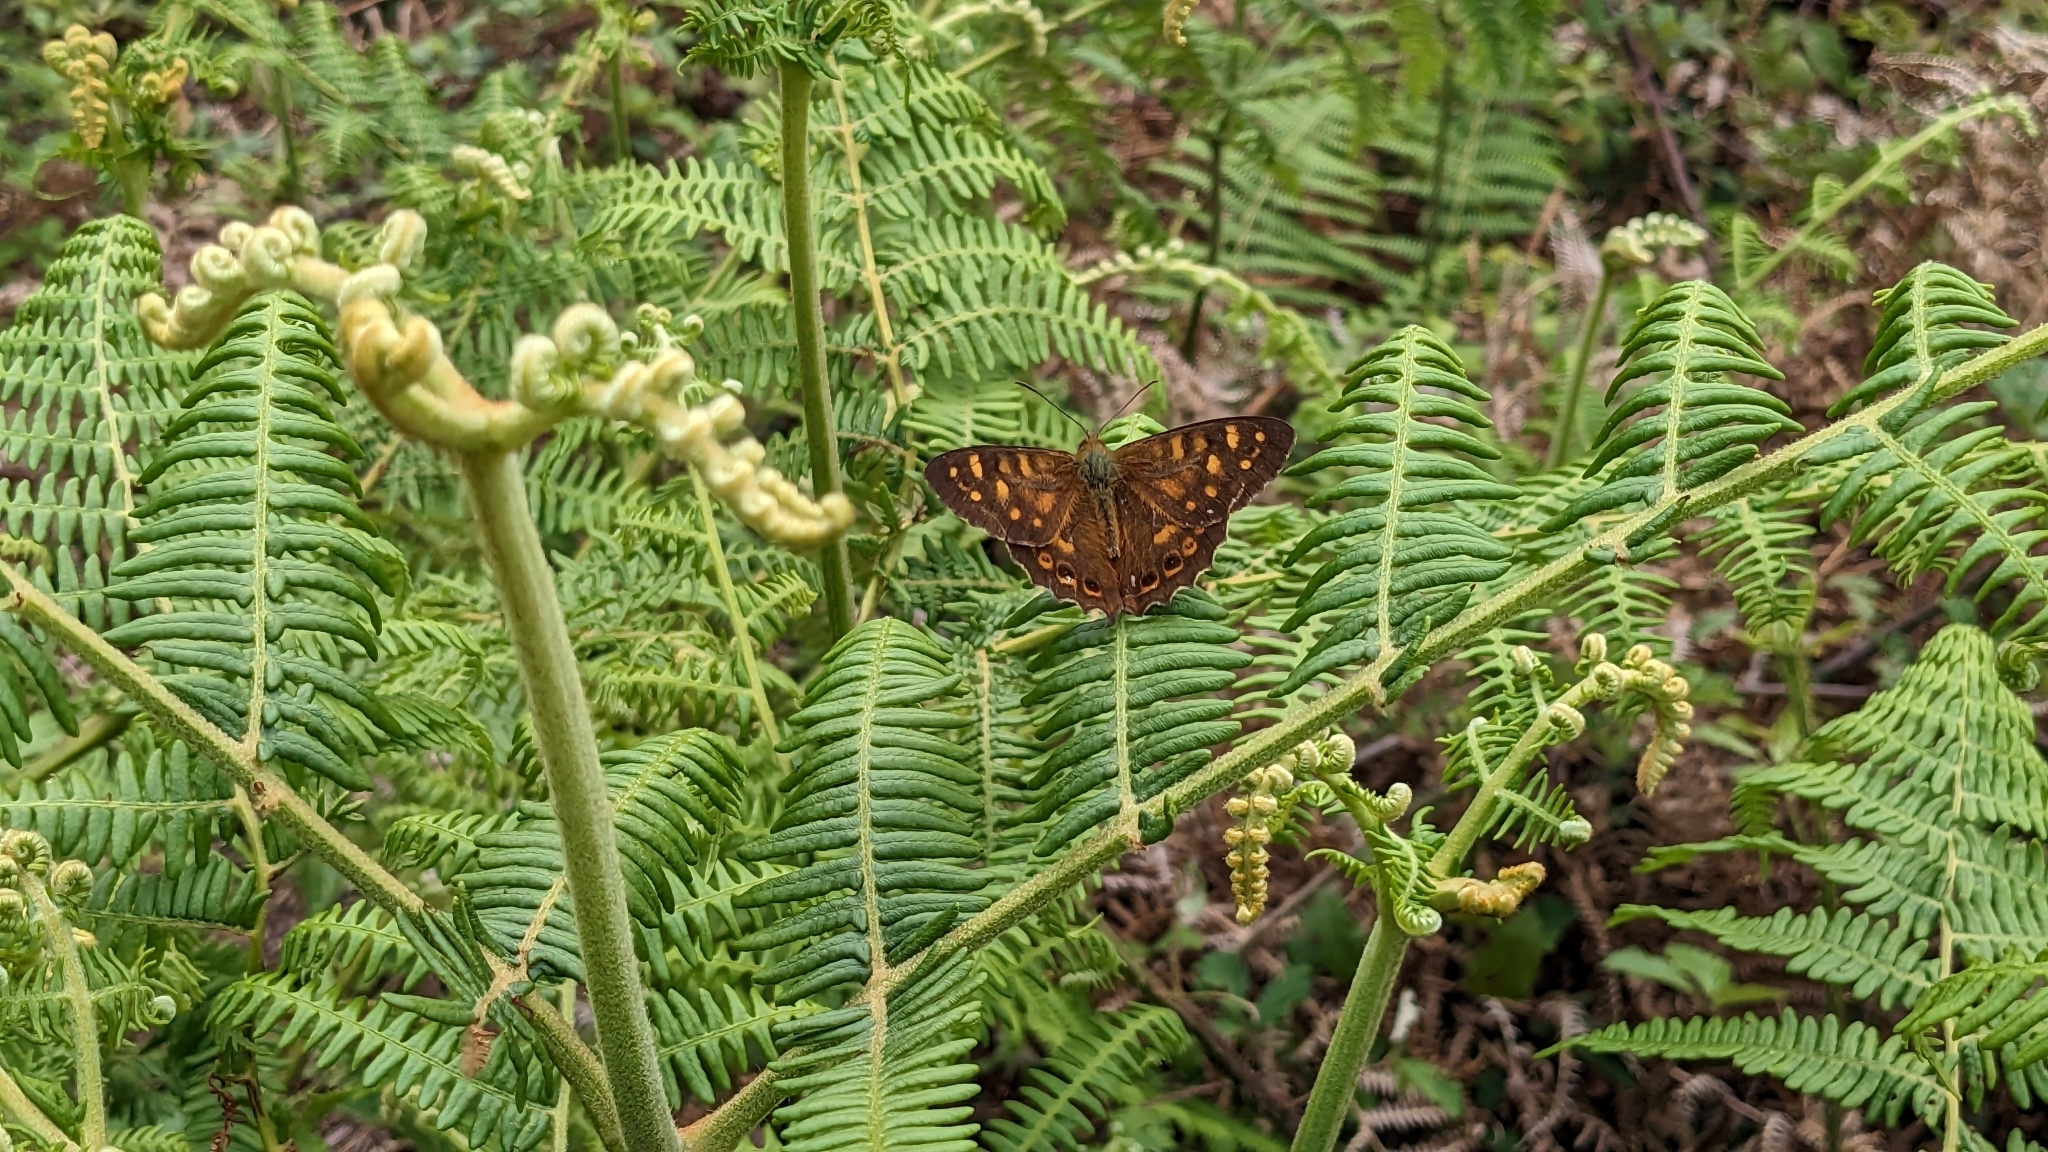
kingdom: Animalia
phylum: Arthropoda
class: Insecta
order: Lepidoptera
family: Nymphalidae
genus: Pararge
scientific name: Pararge
